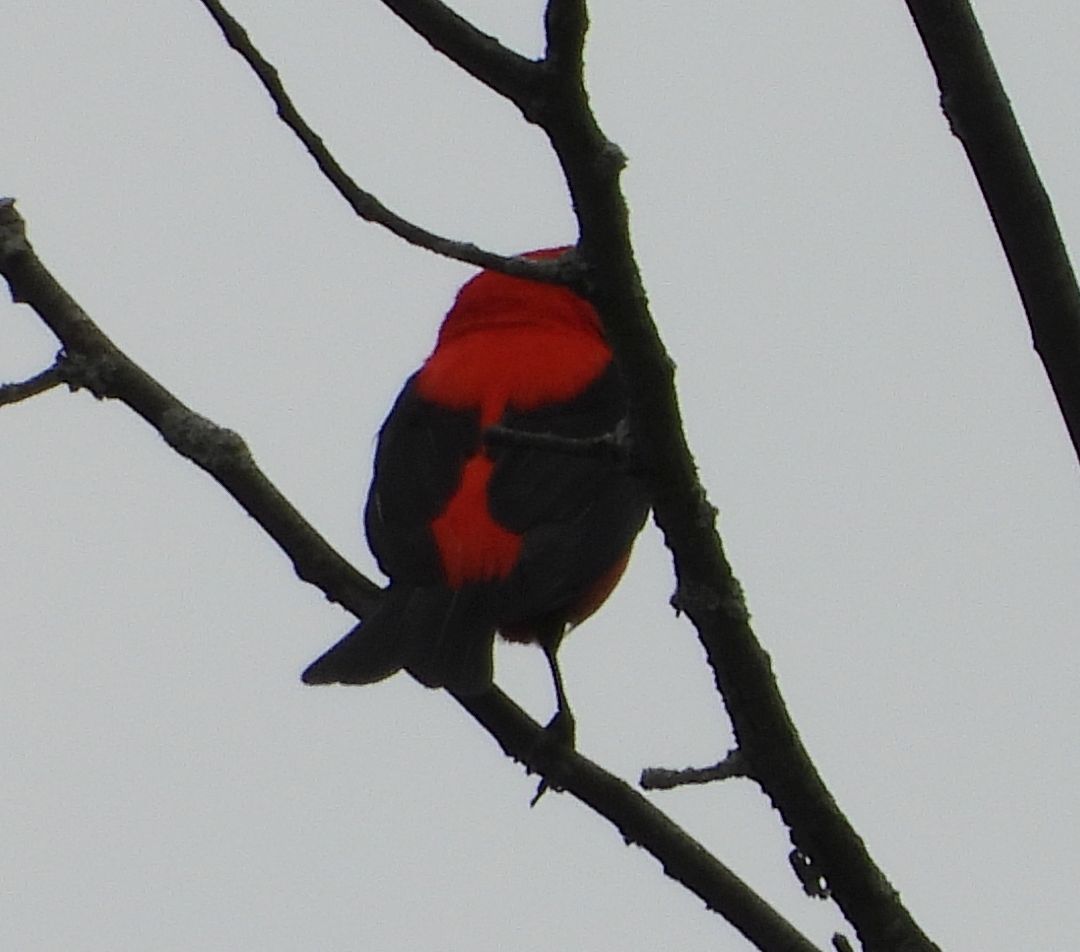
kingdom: Animalia
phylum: Chordata
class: Aves
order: Passeriformes
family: Cardinalidae
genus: Piranga
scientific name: Piranga olivacea
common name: Scarlet tanager
